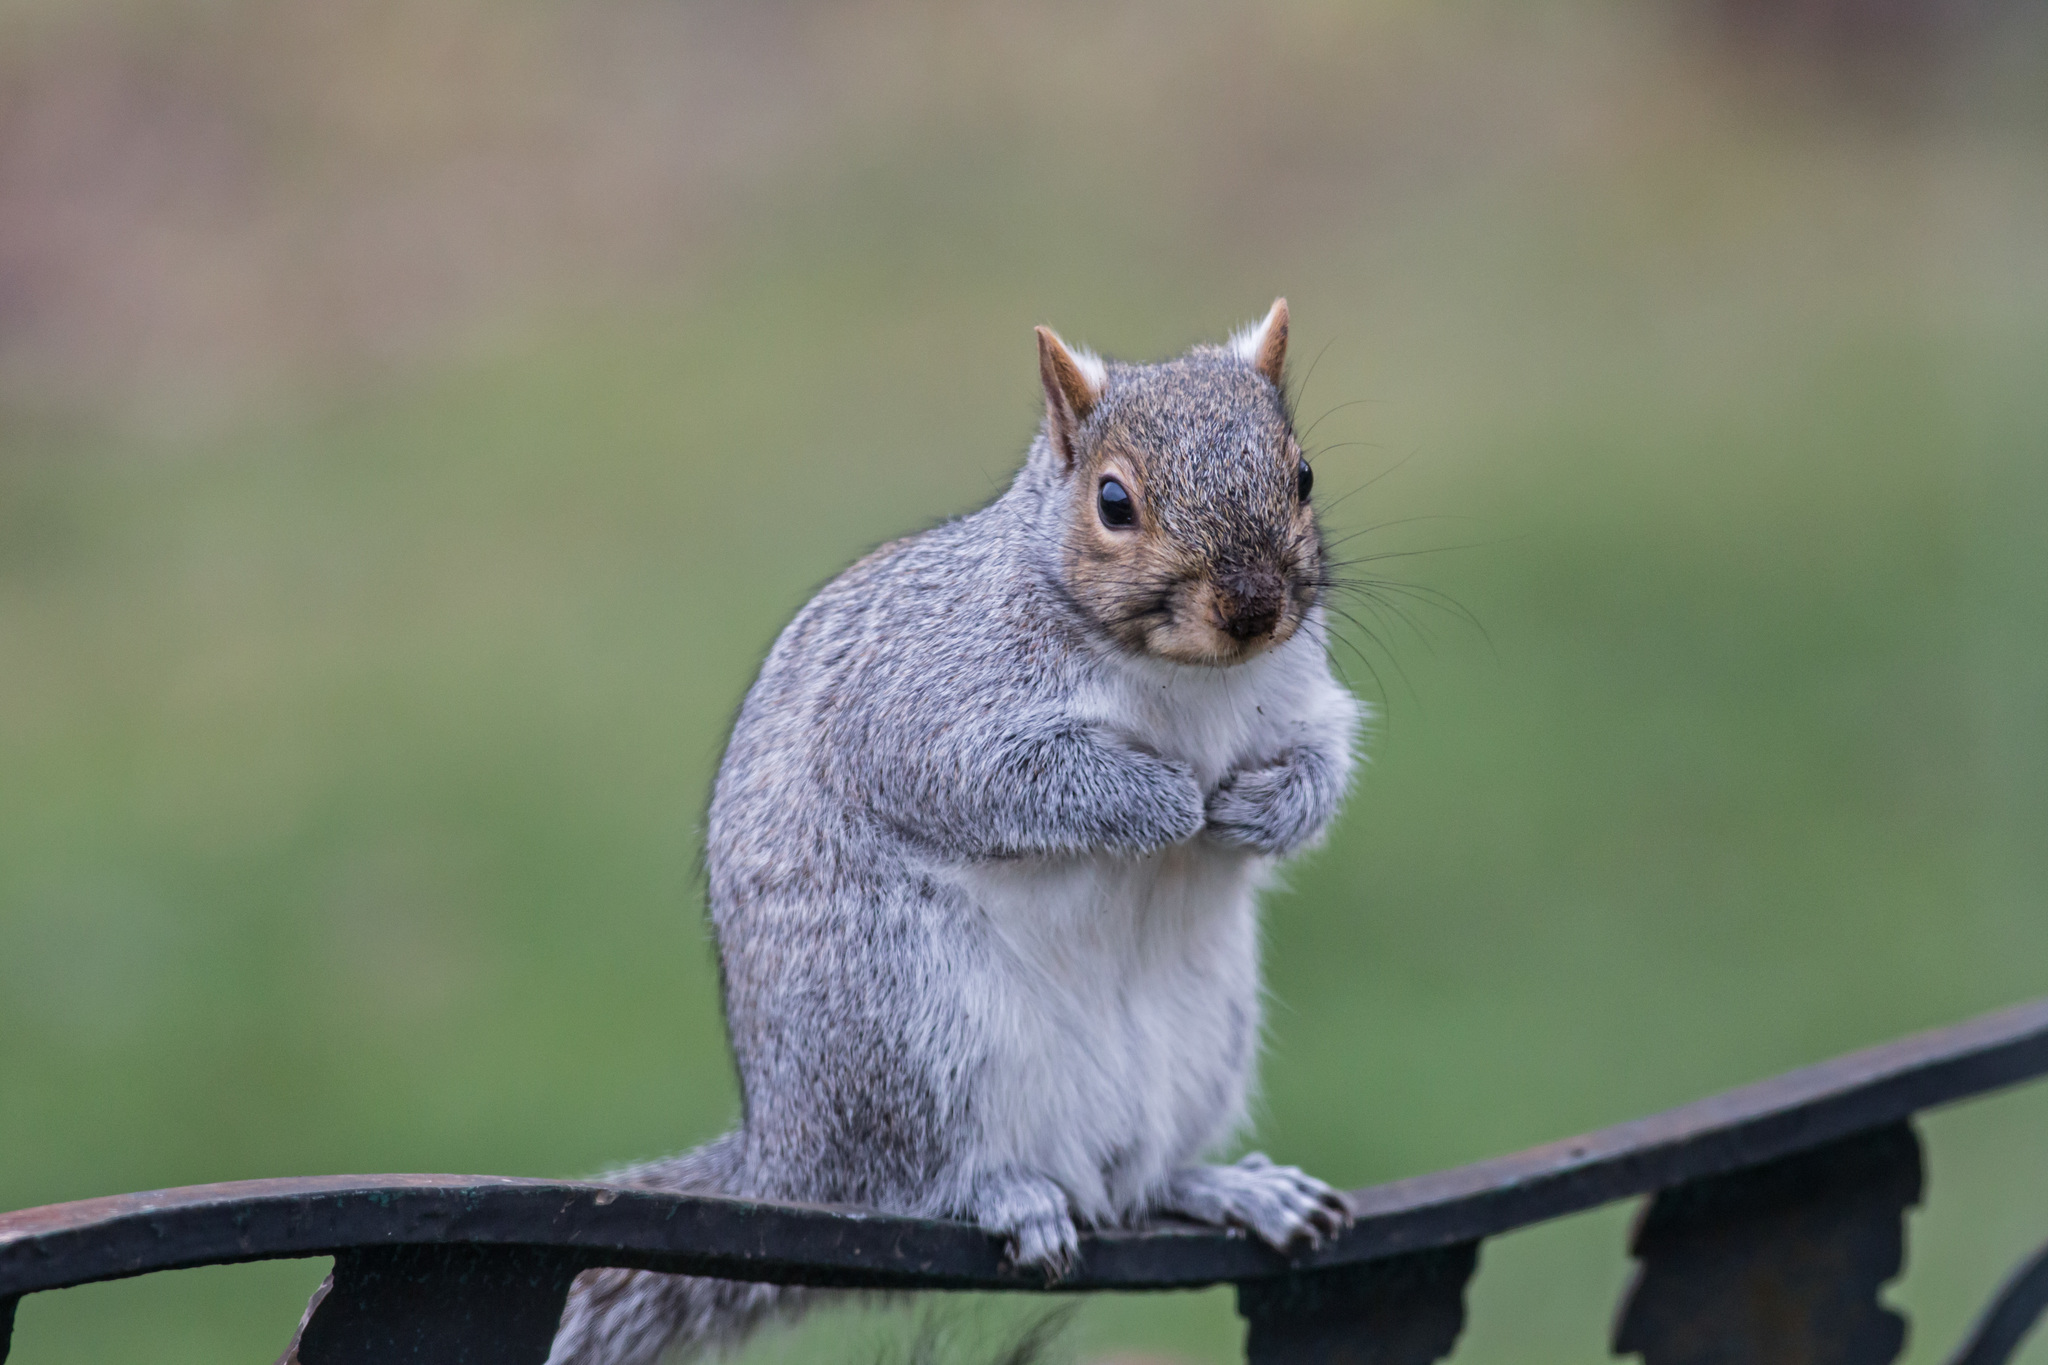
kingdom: Animalia
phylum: Chordata
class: Mammalia
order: Rodentia
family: Sciuridae
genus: Sciurus
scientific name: Sciurus carolinensis
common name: Eastern gray squirrel
